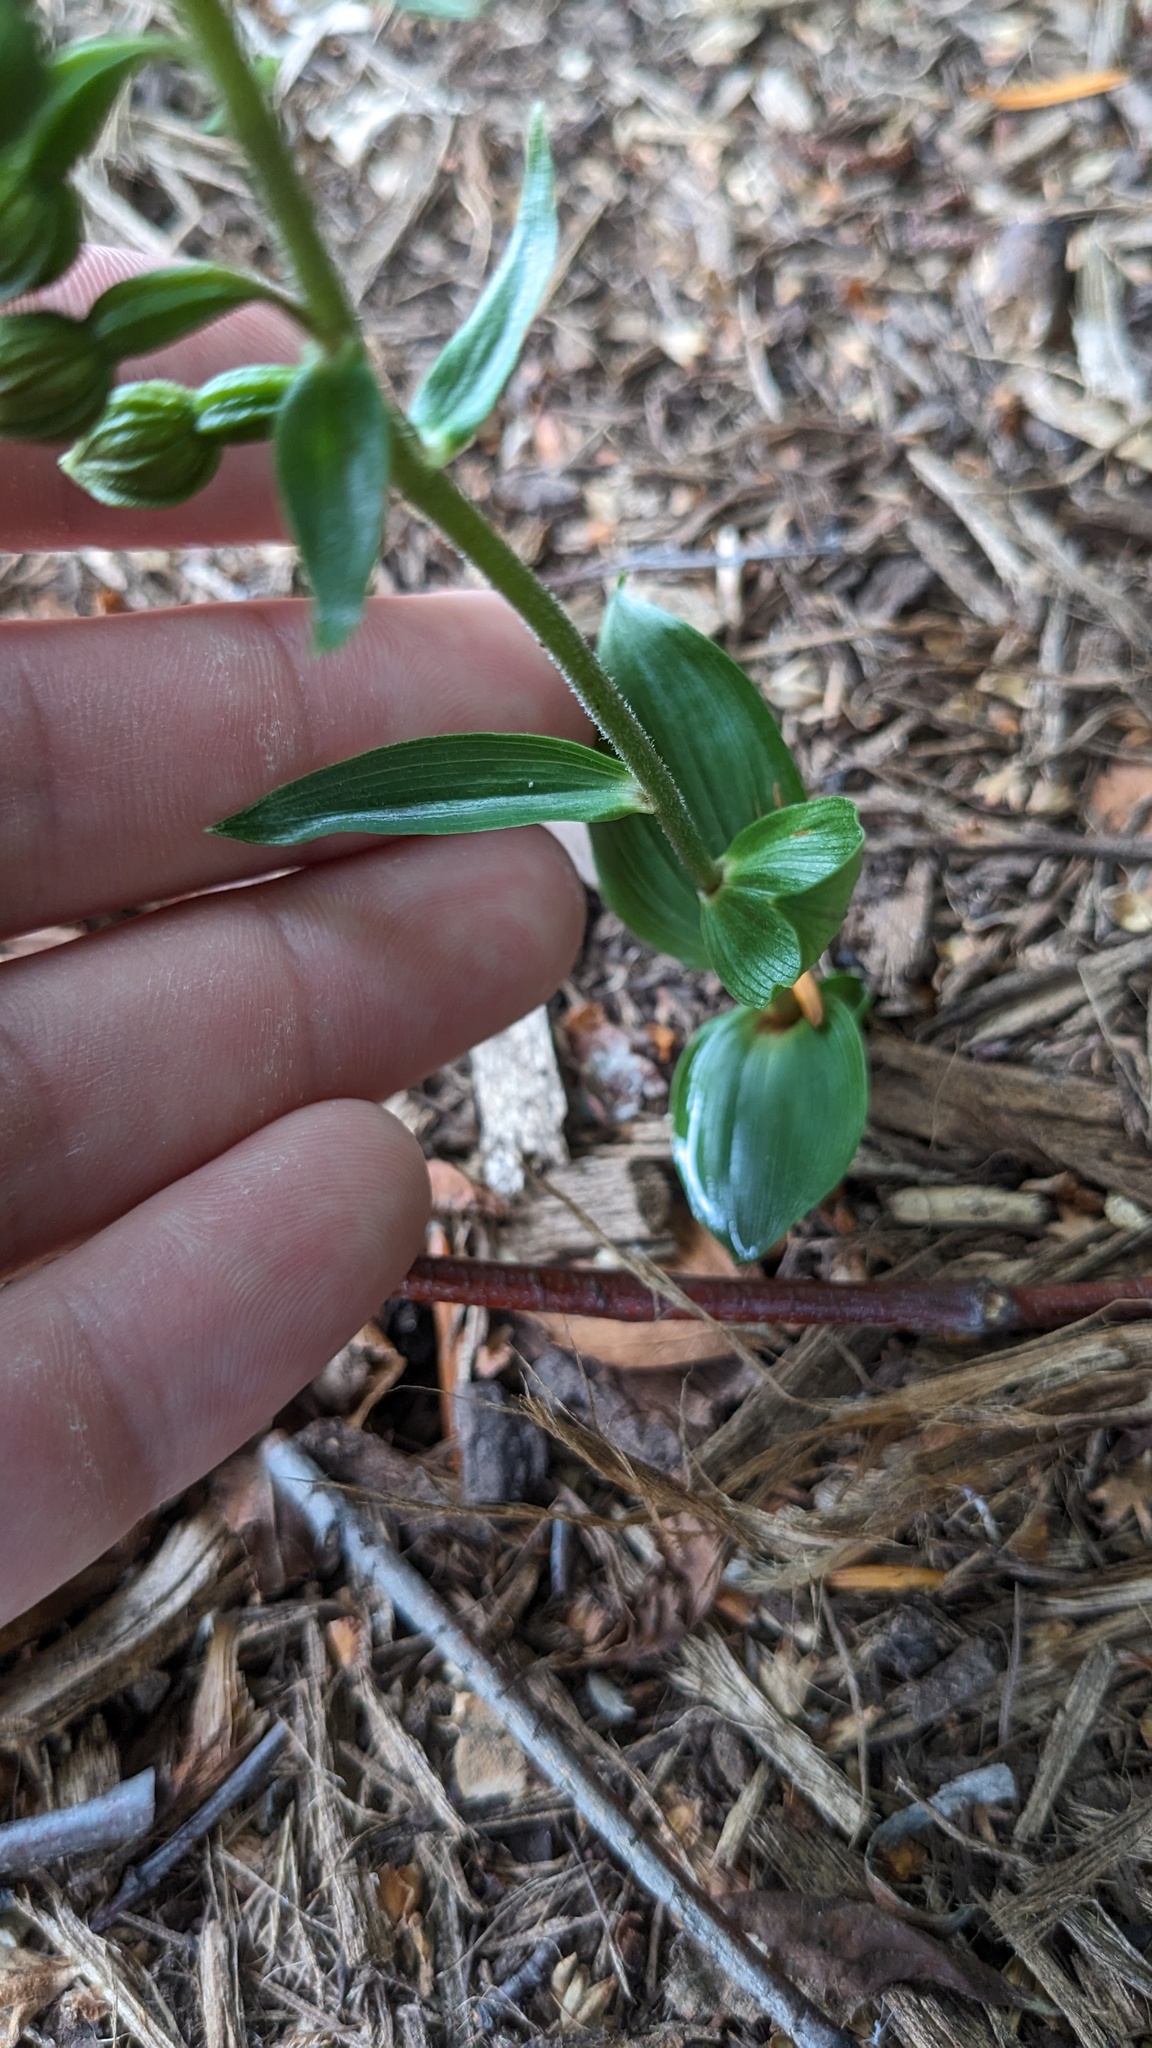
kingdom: Plantae
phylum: Tracheophyta
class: Liliopsida
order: Asparagales
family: Orchidaceae
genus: Epipactis
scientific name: Epipactis helleborine
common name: Broad-leaved helleborine
